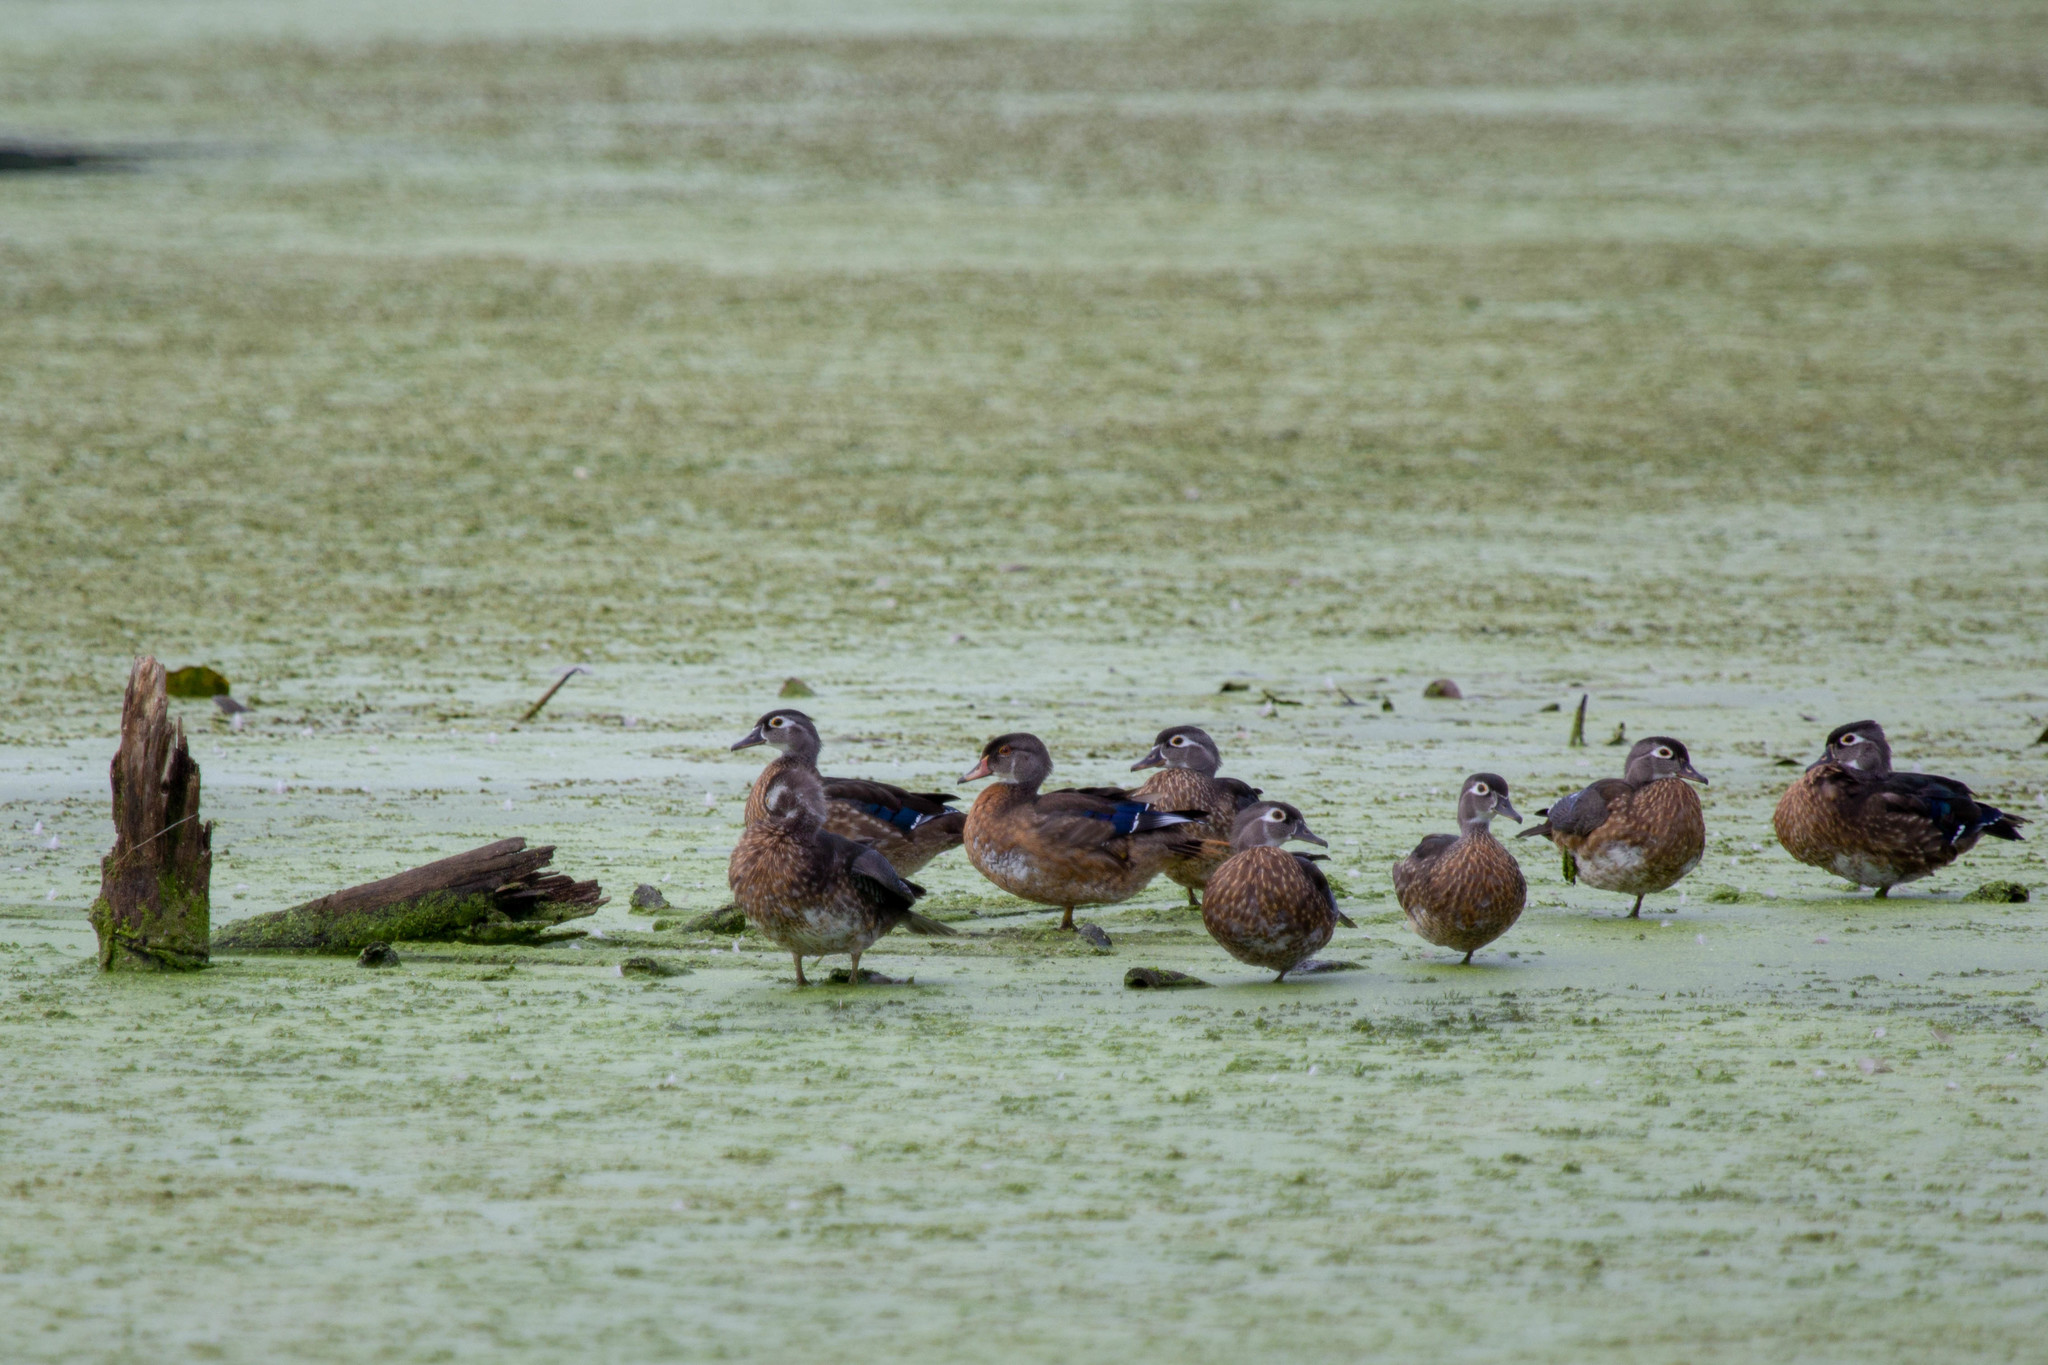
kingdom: Animalia
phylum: Chordata
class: Aves
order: Anseriformes
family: Anatidae
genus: Aix
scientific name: Aix sponsa
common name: Wood duck
